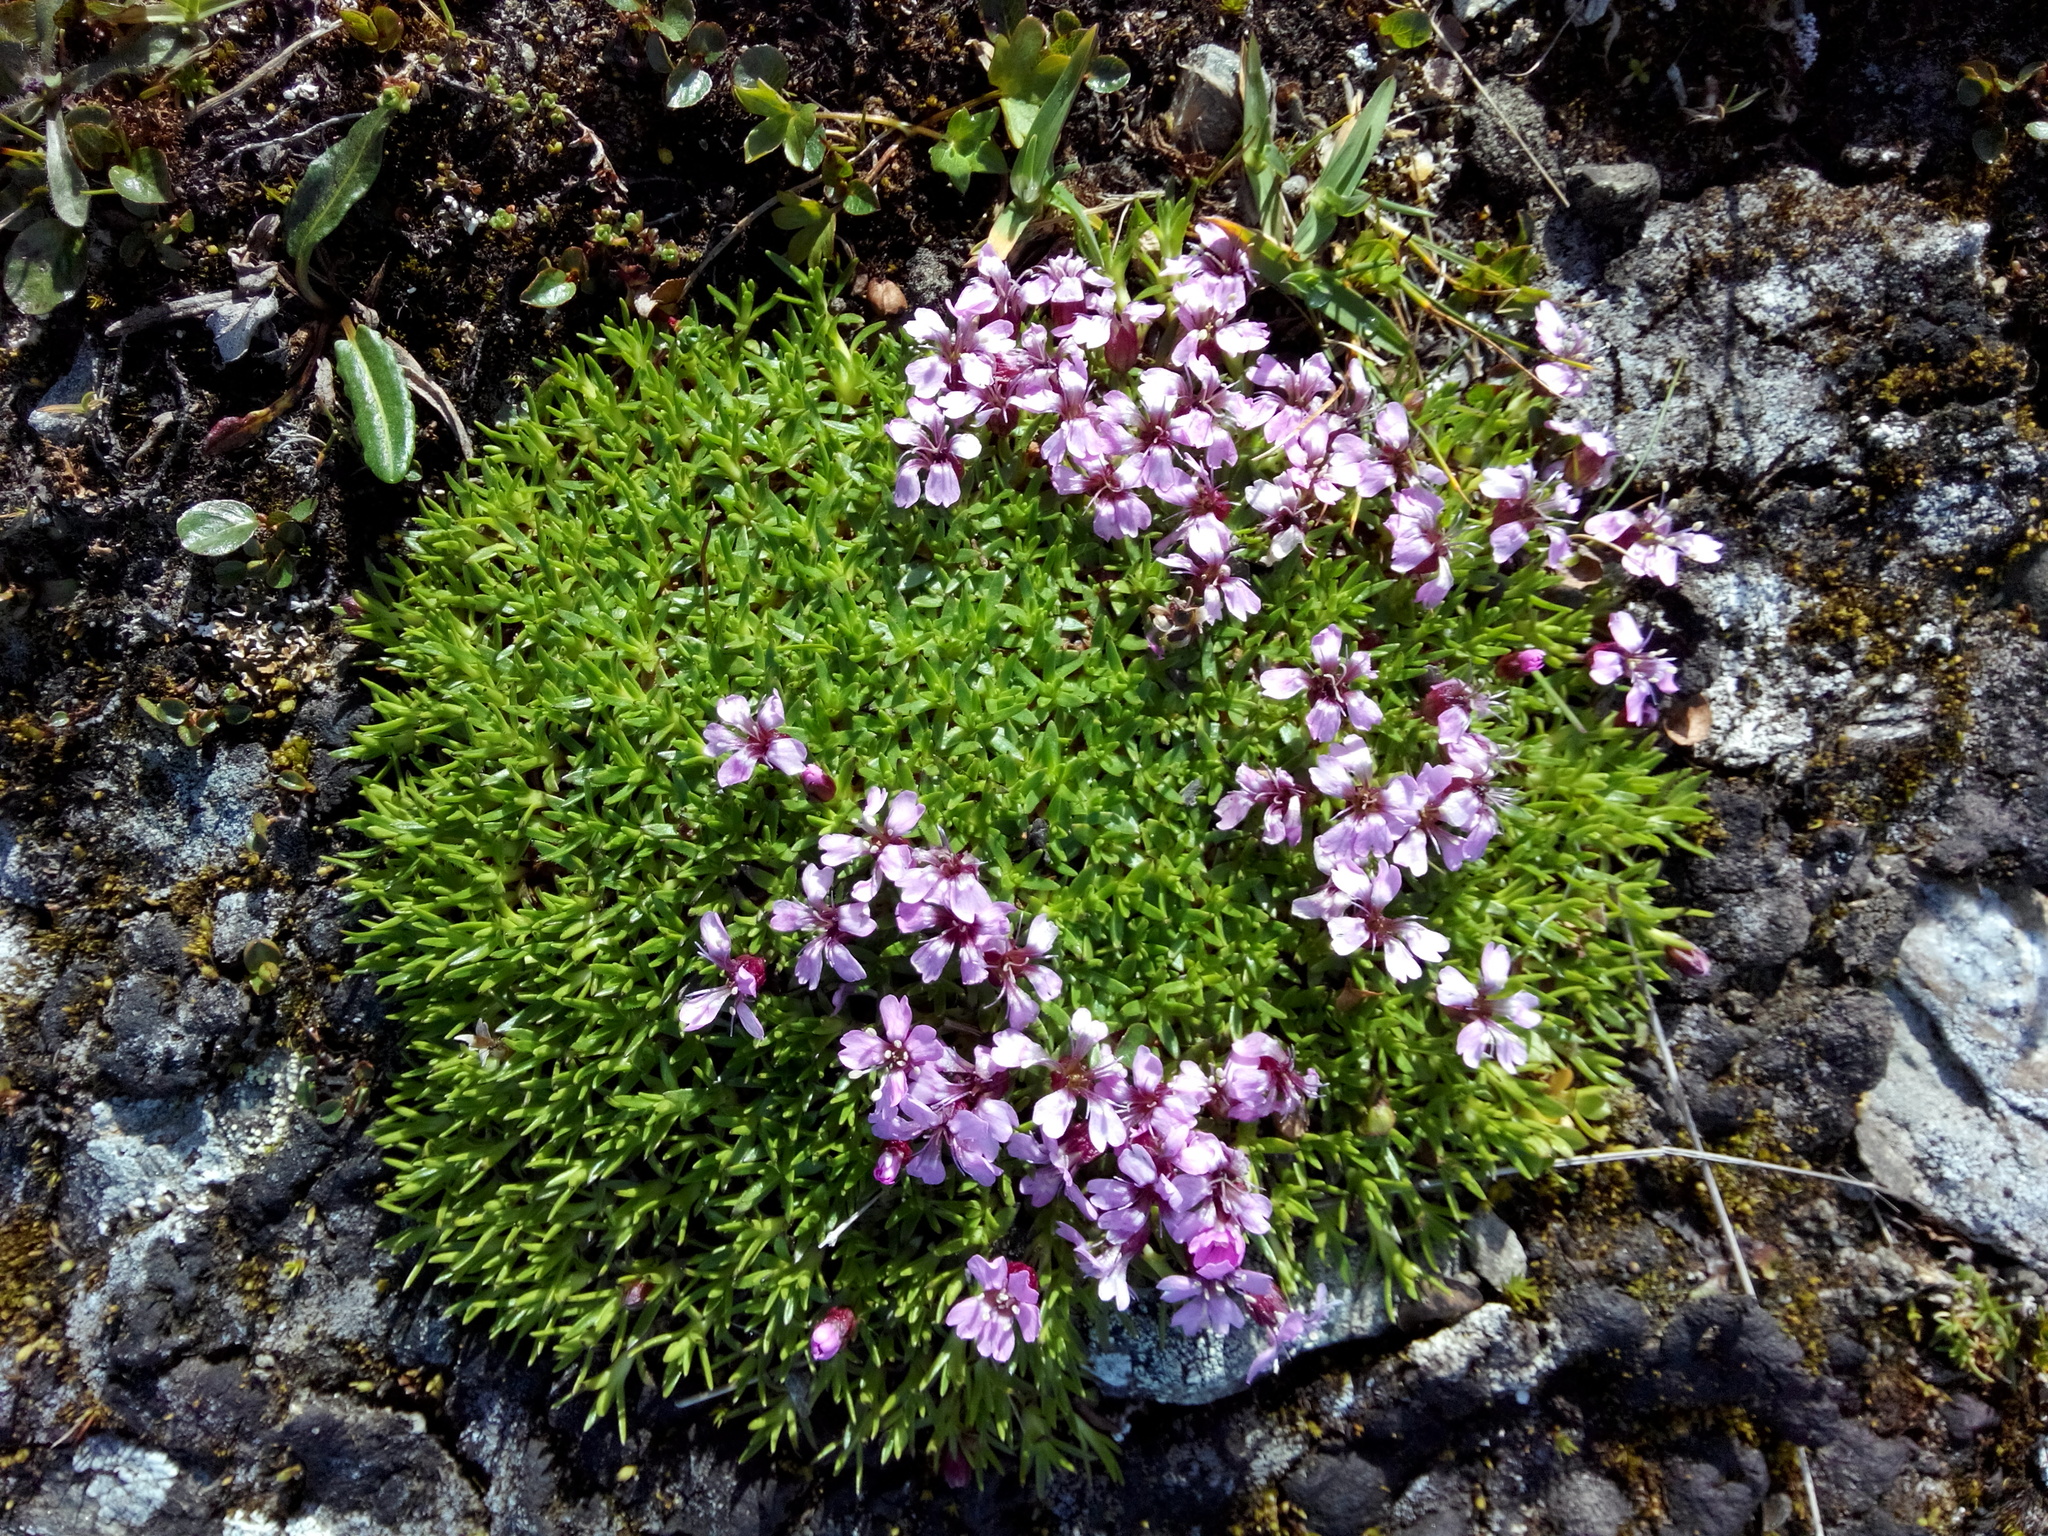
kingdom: Plantae
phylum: Tracheophyta
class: Magnoliopsida
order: Caryophyllales
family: Caryophyllaceae
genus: Silene
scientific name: Silene acaulis
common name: Moss campion
